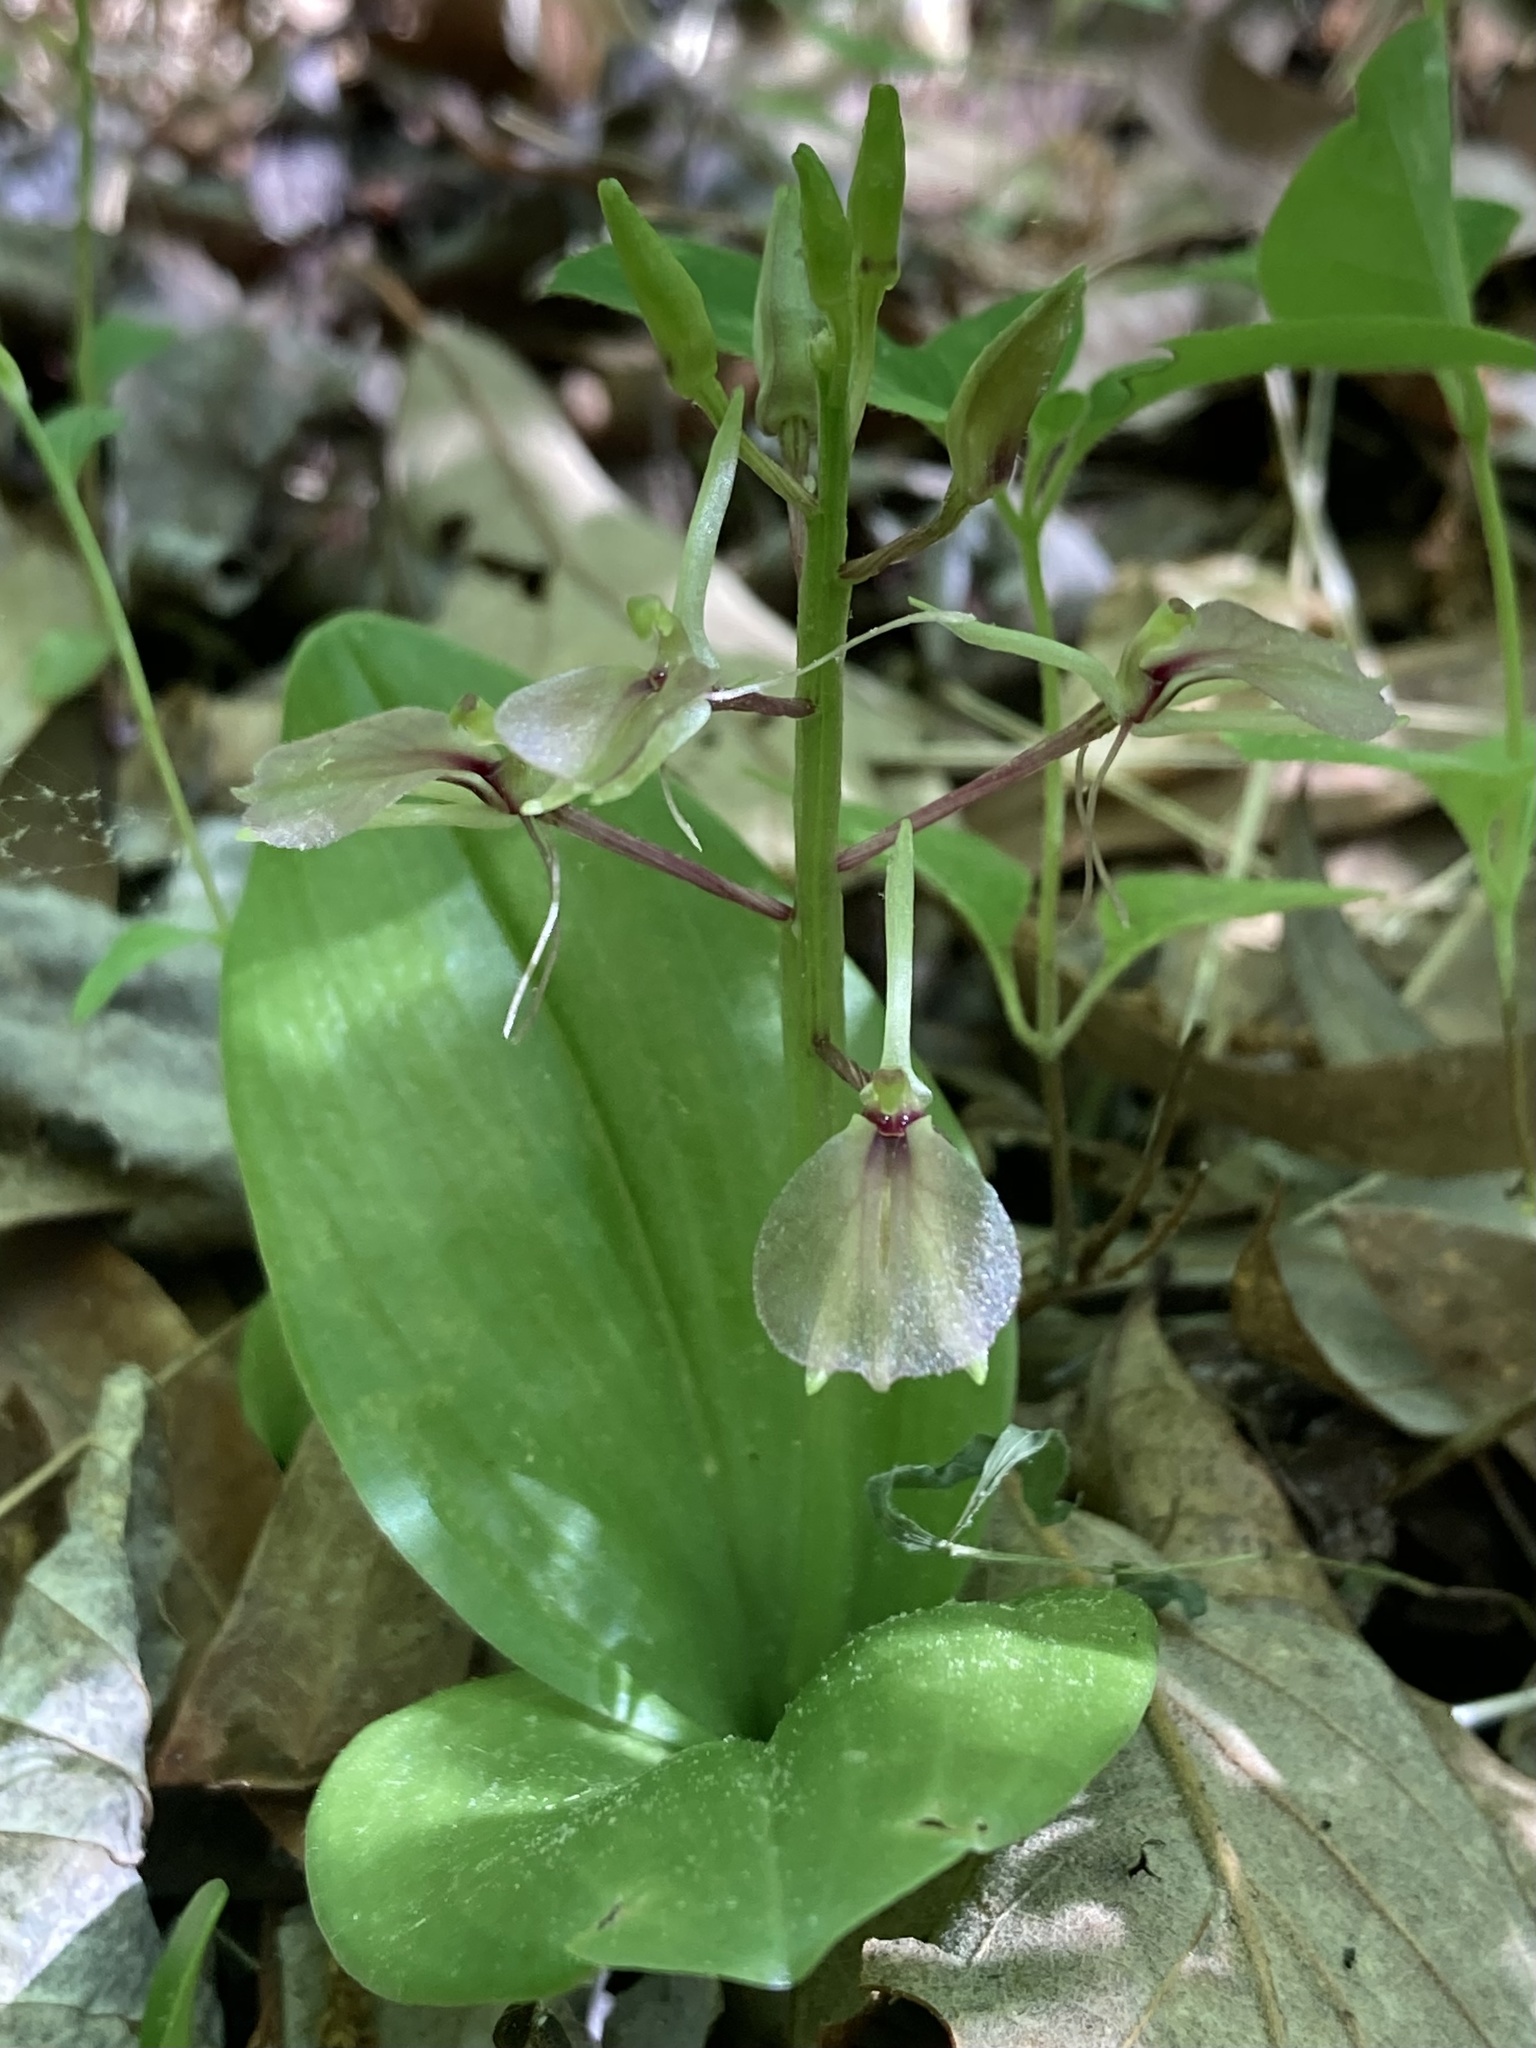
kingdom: Plantae
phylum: Tracheophyta
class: Liliopsida
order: Asparagales
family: Orchidaceae
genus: Liparis
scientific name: Liparis liliifolia
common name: Brown wide-lip orchid
